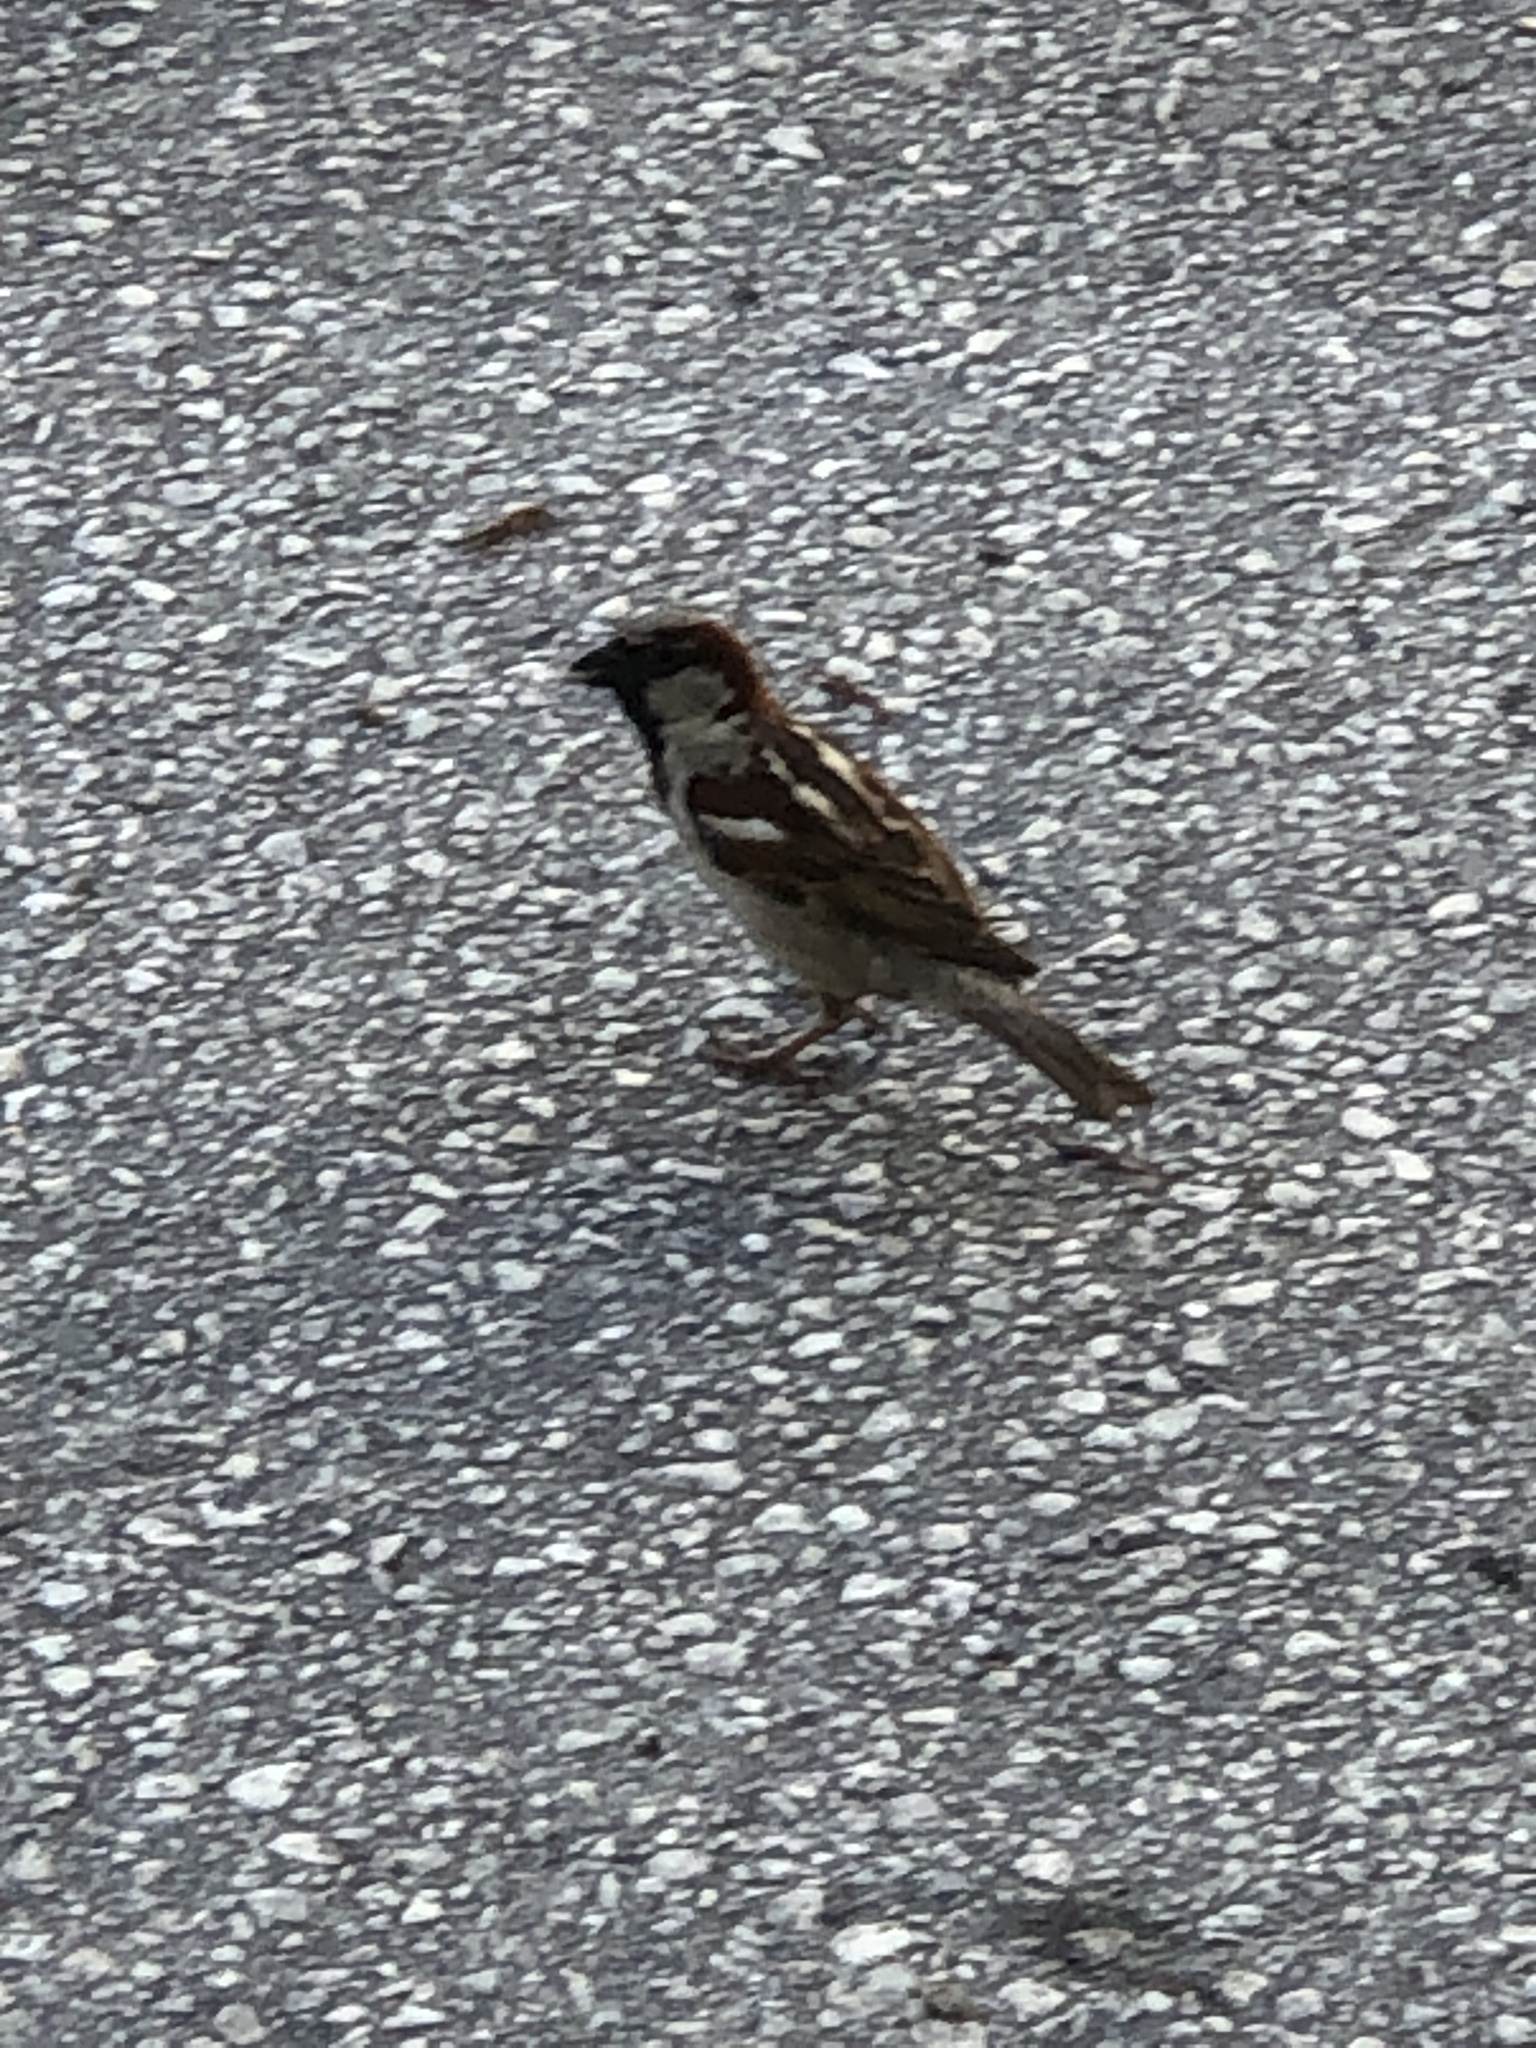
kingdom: Animalia
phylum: Chordata
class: Aves
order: Passeriformes
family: Passeridae
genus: Passer
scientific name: Passer domesticus
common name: House sparrow
